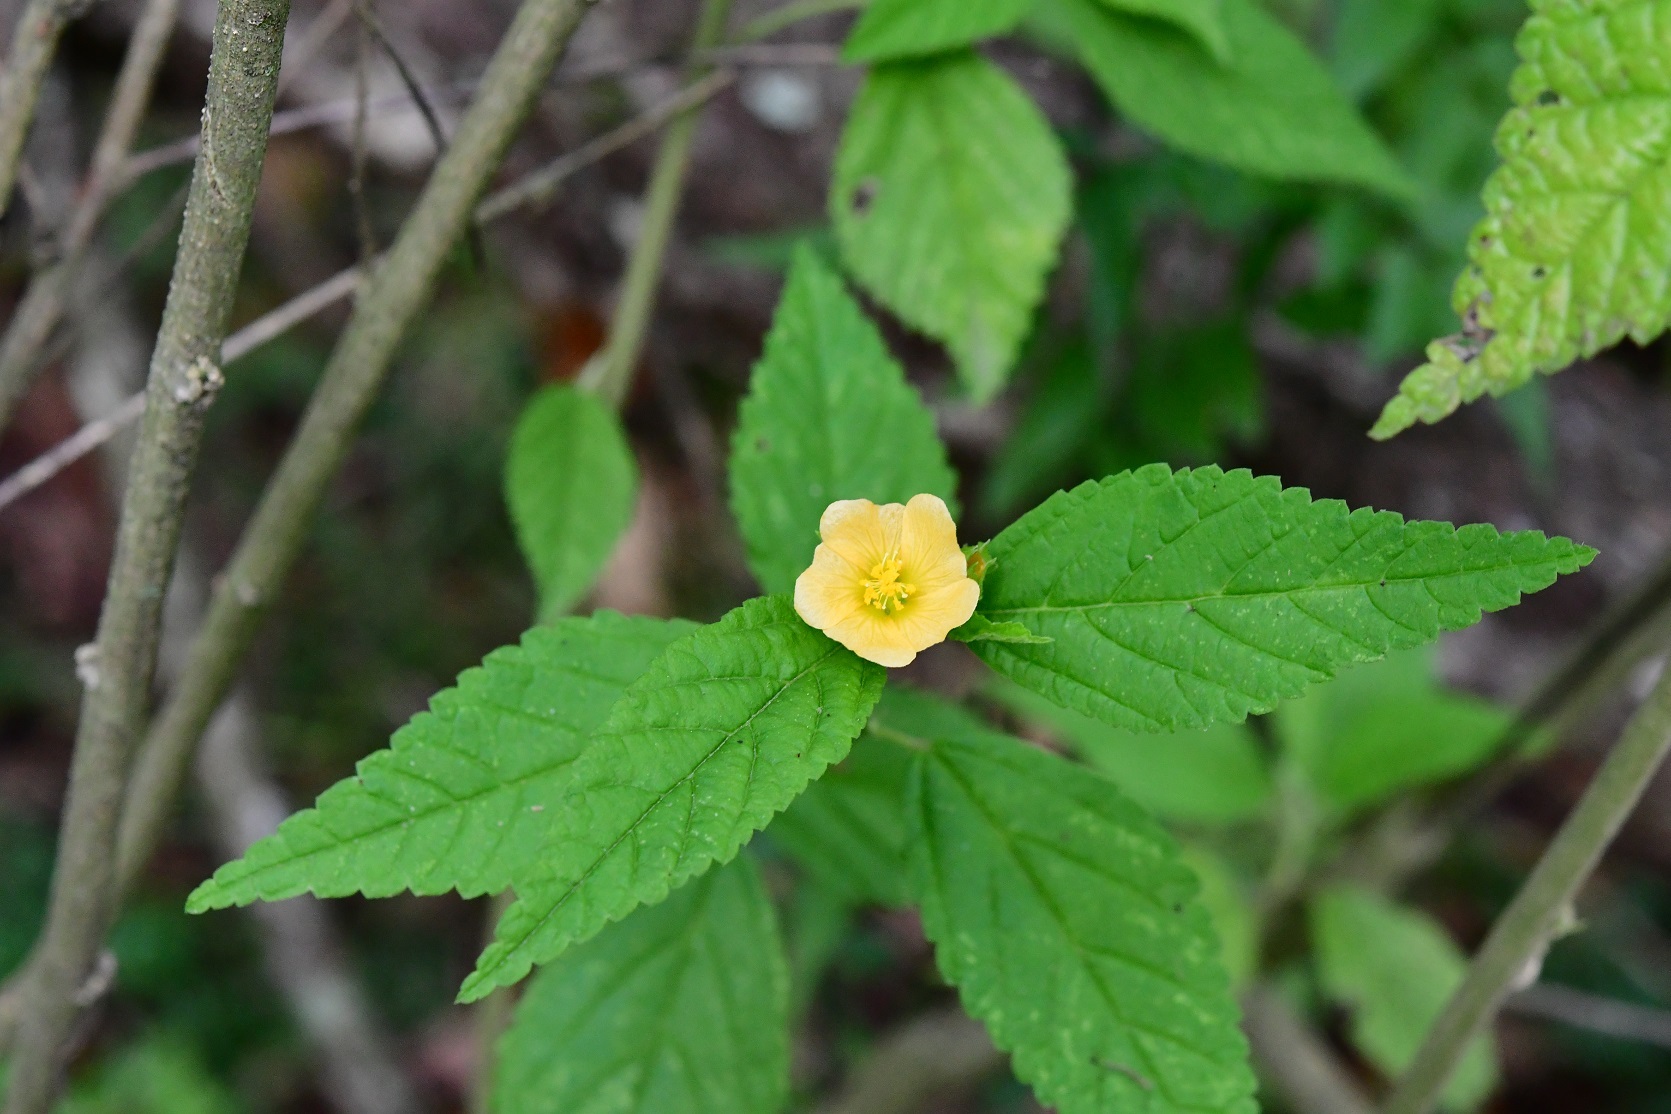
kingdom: Plantae
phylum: Tracheophyta
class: Magnoliopsida
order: Malvales
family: Malvaceae
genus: Sida
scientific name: Sida acuta
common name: Common wireweed
